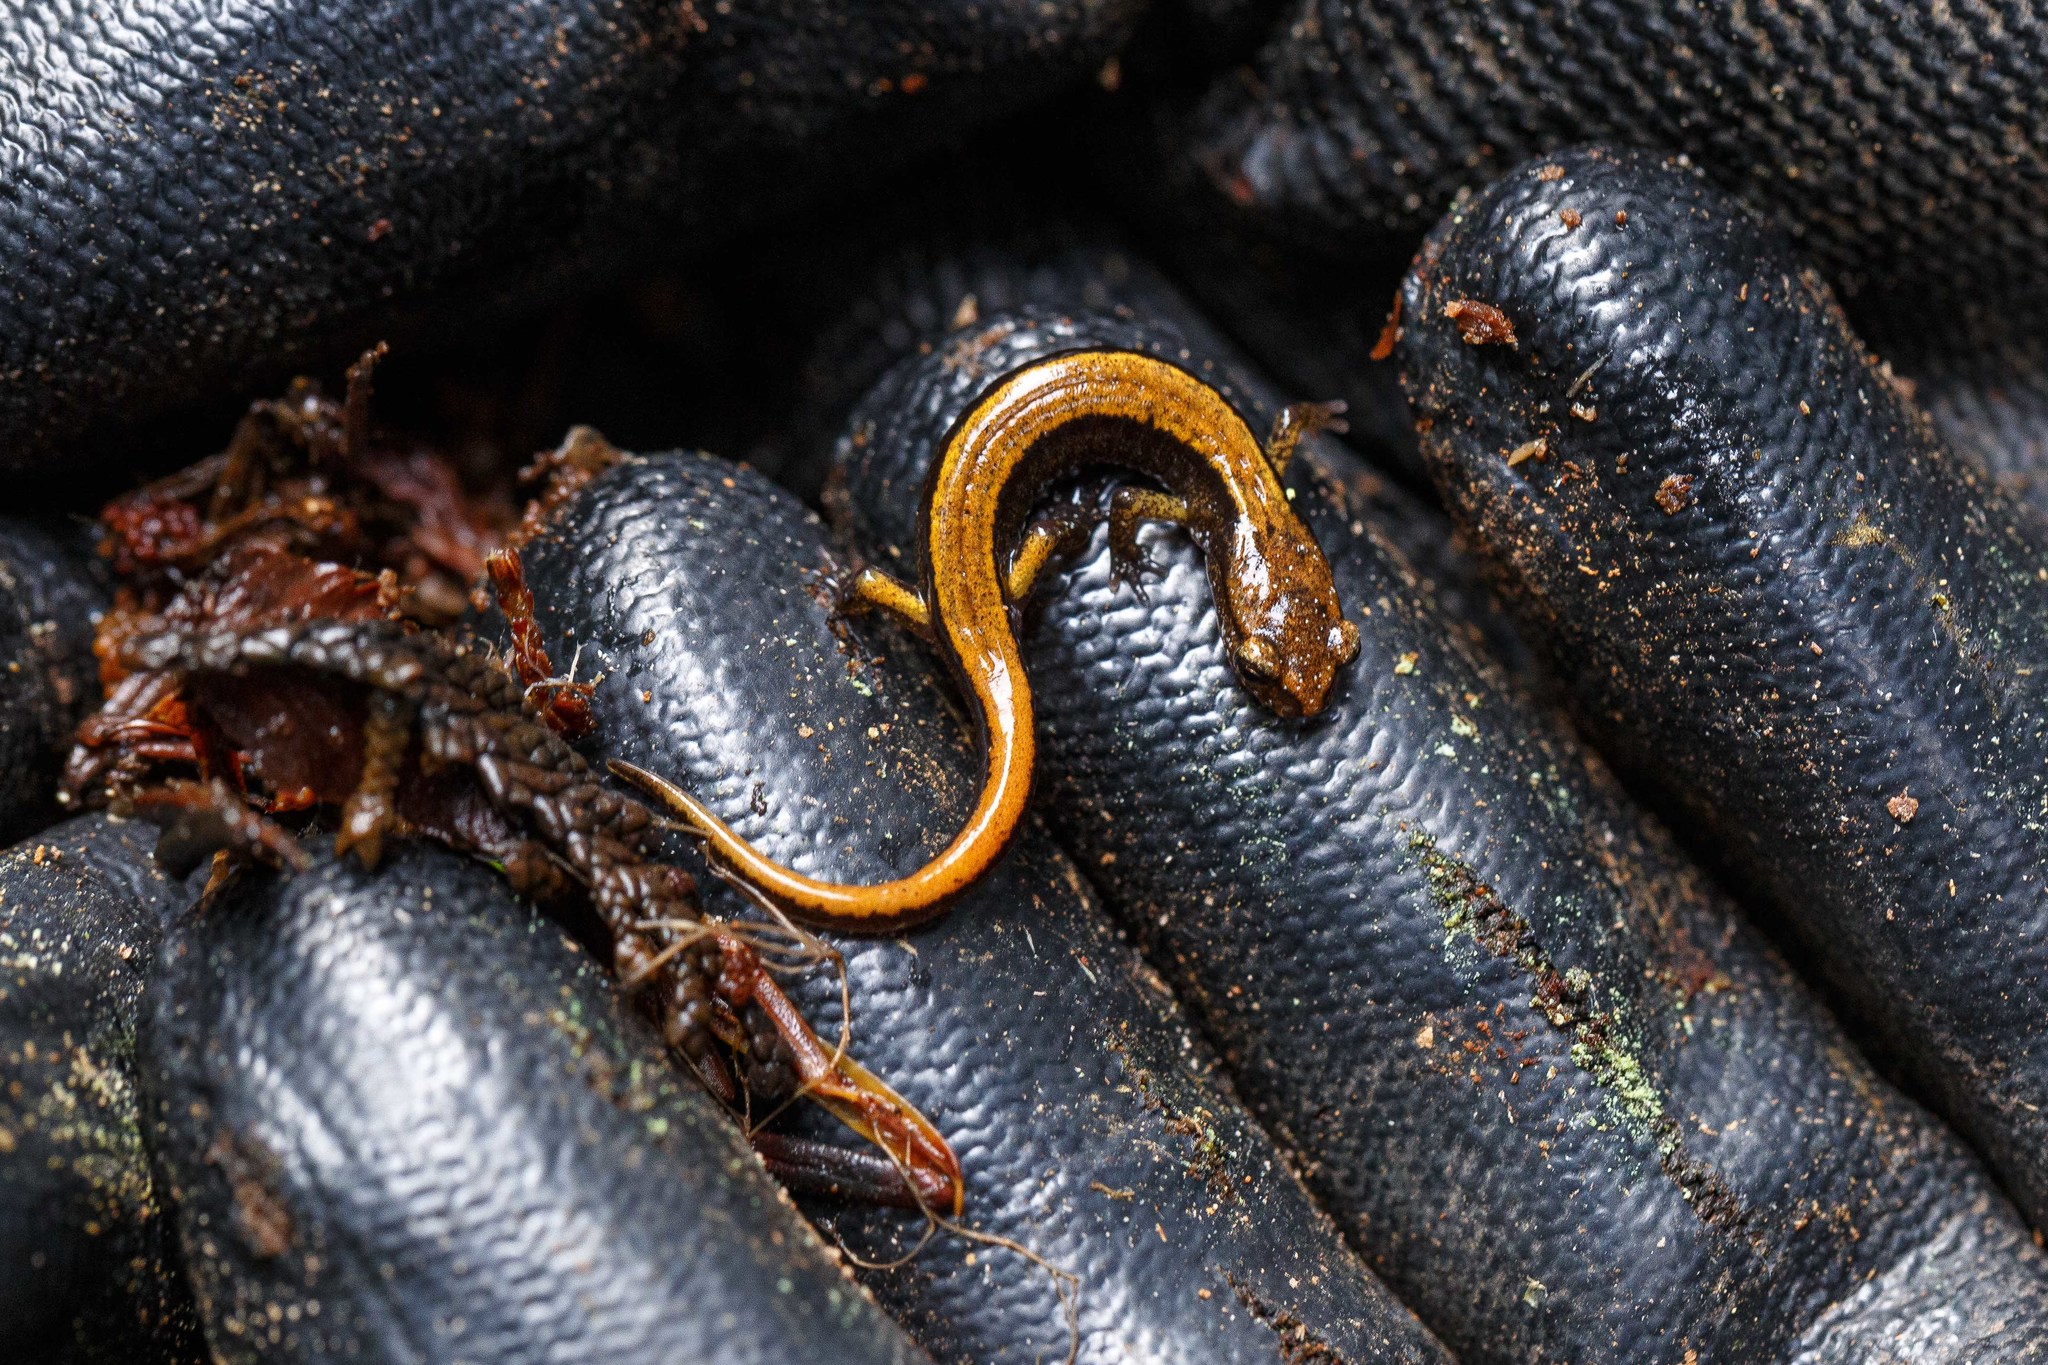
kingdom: Animalia
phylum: Chordata
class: Amphibia
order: Caudata
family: Plethodontidae
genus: Plethodon
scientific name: Plethodon vehiculum
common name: Western red-backed salamander
